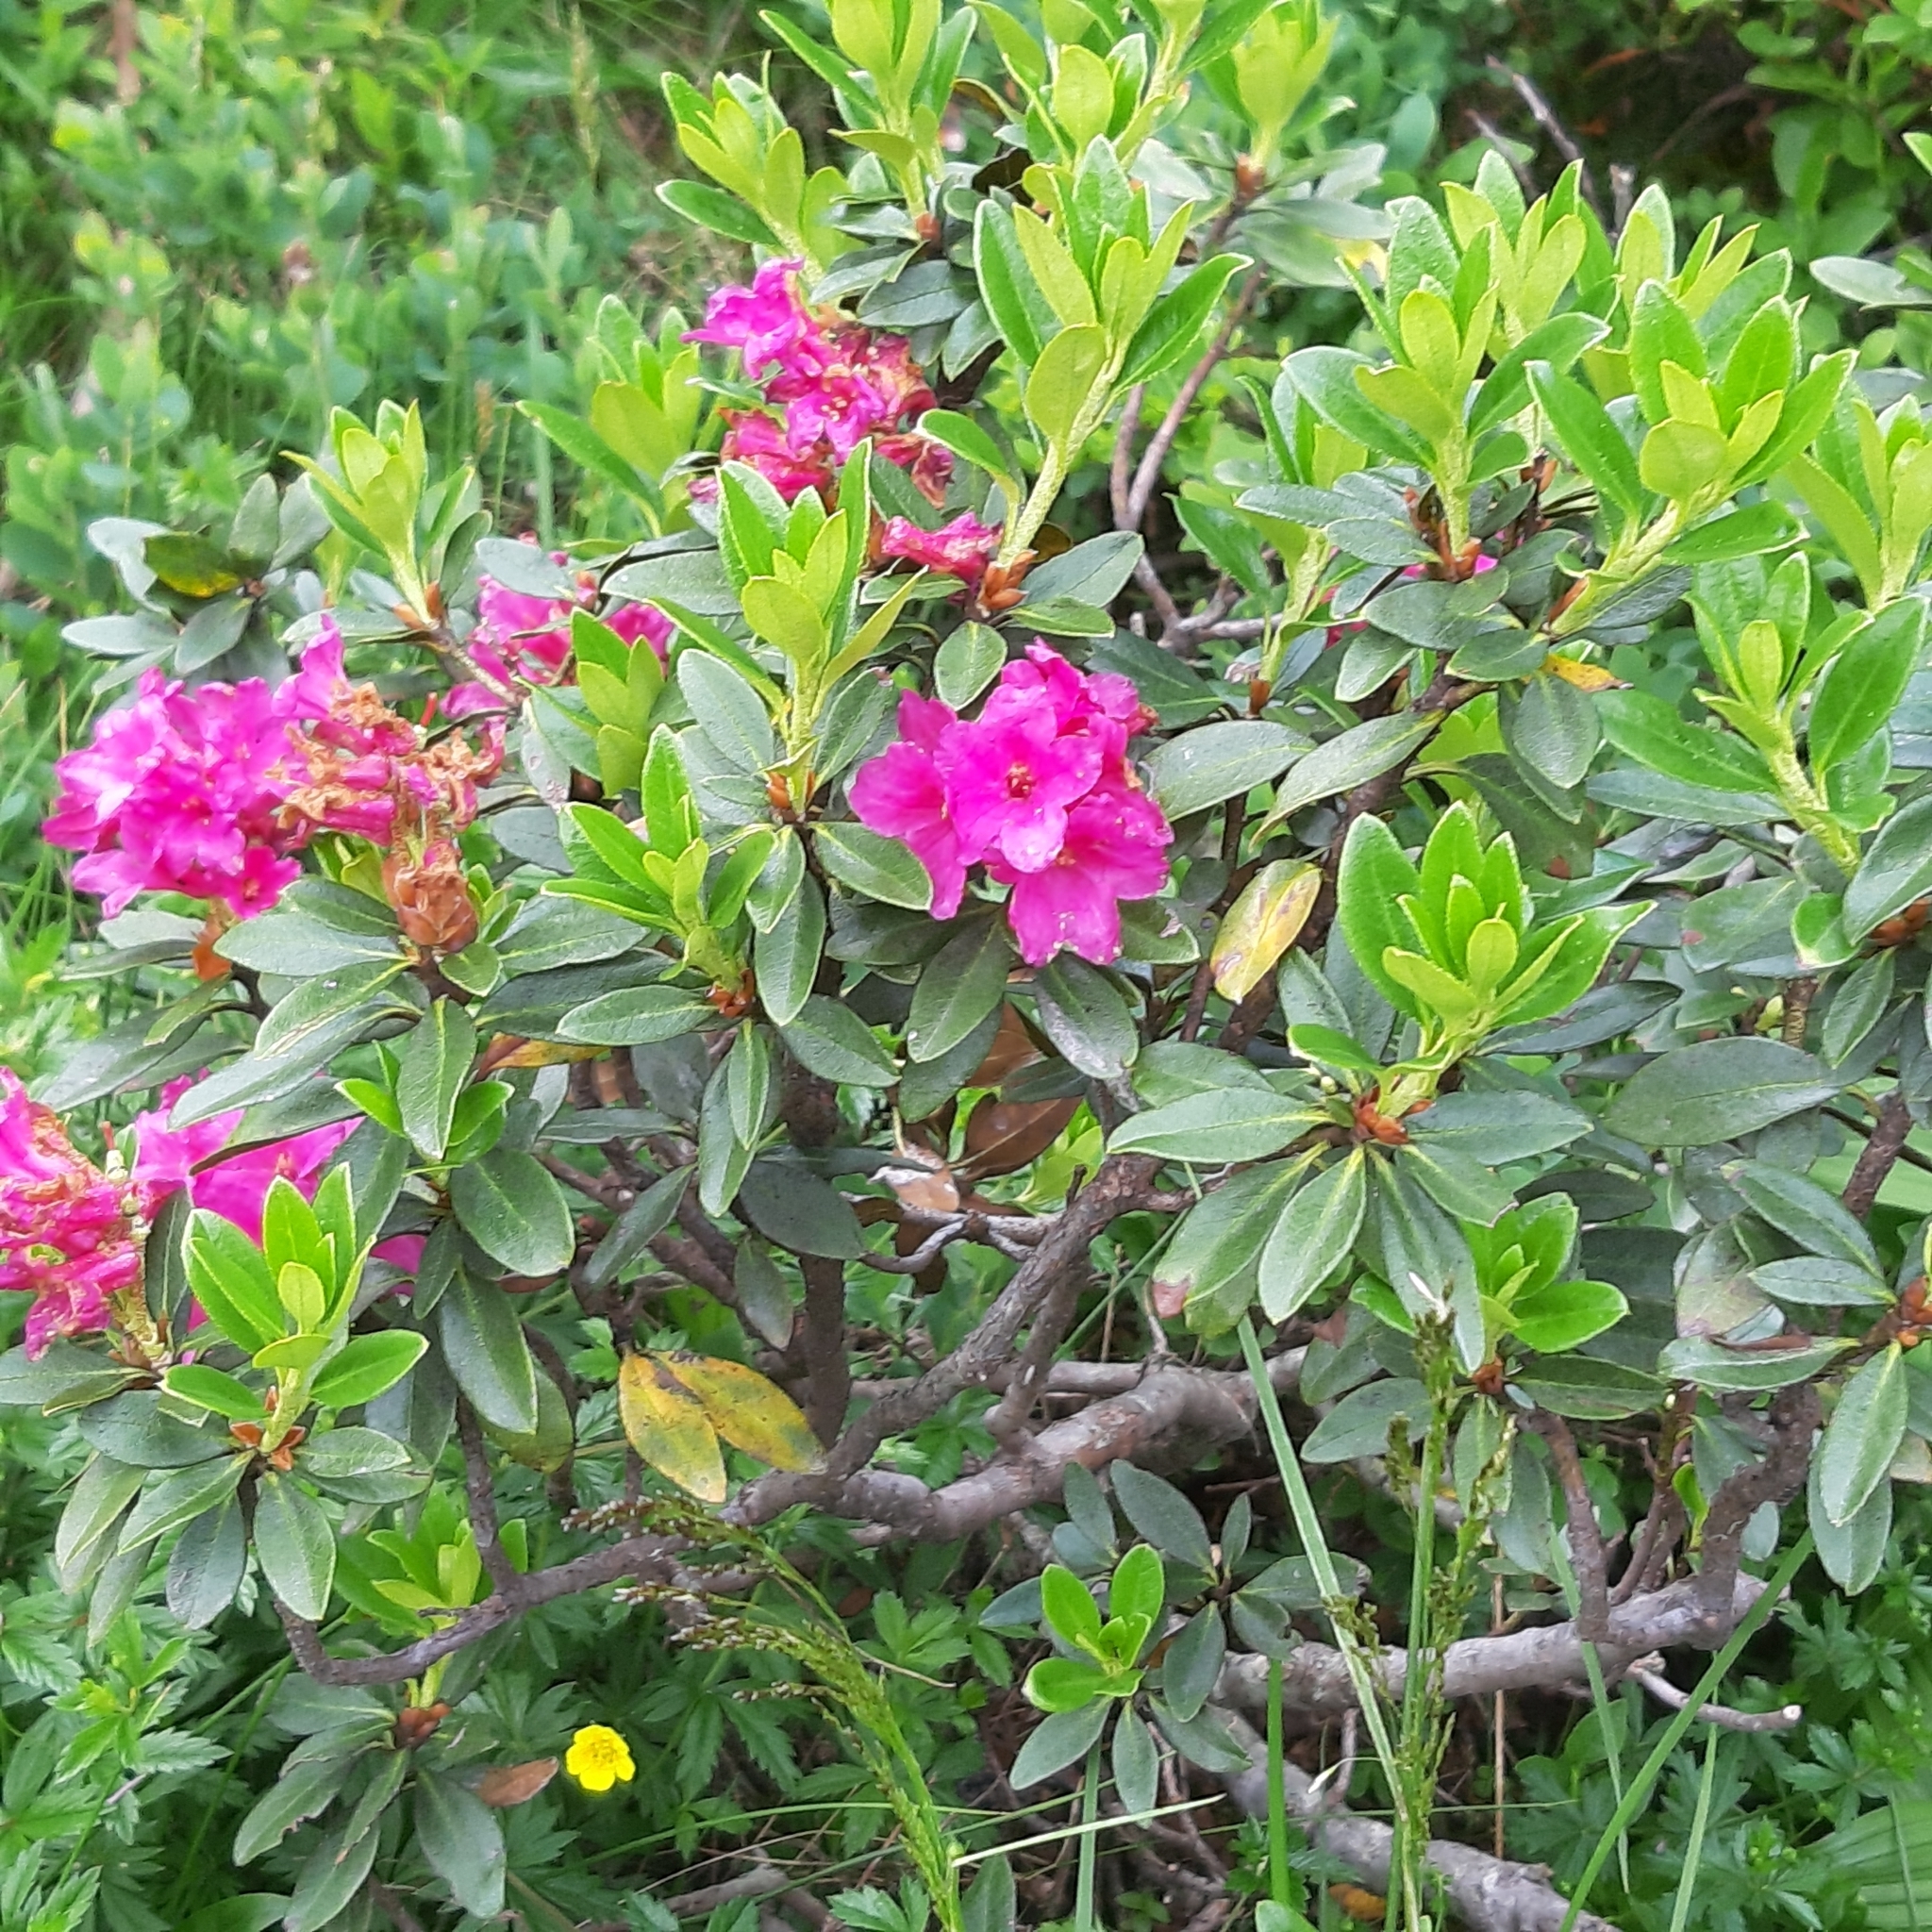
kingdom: Plantae
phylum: Tracheophyta
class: Magnoliopsida
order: Ericales
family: Ericaceae
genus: Rhododendron
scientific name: Rhododendron ferrugineum
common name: Alpenrose
